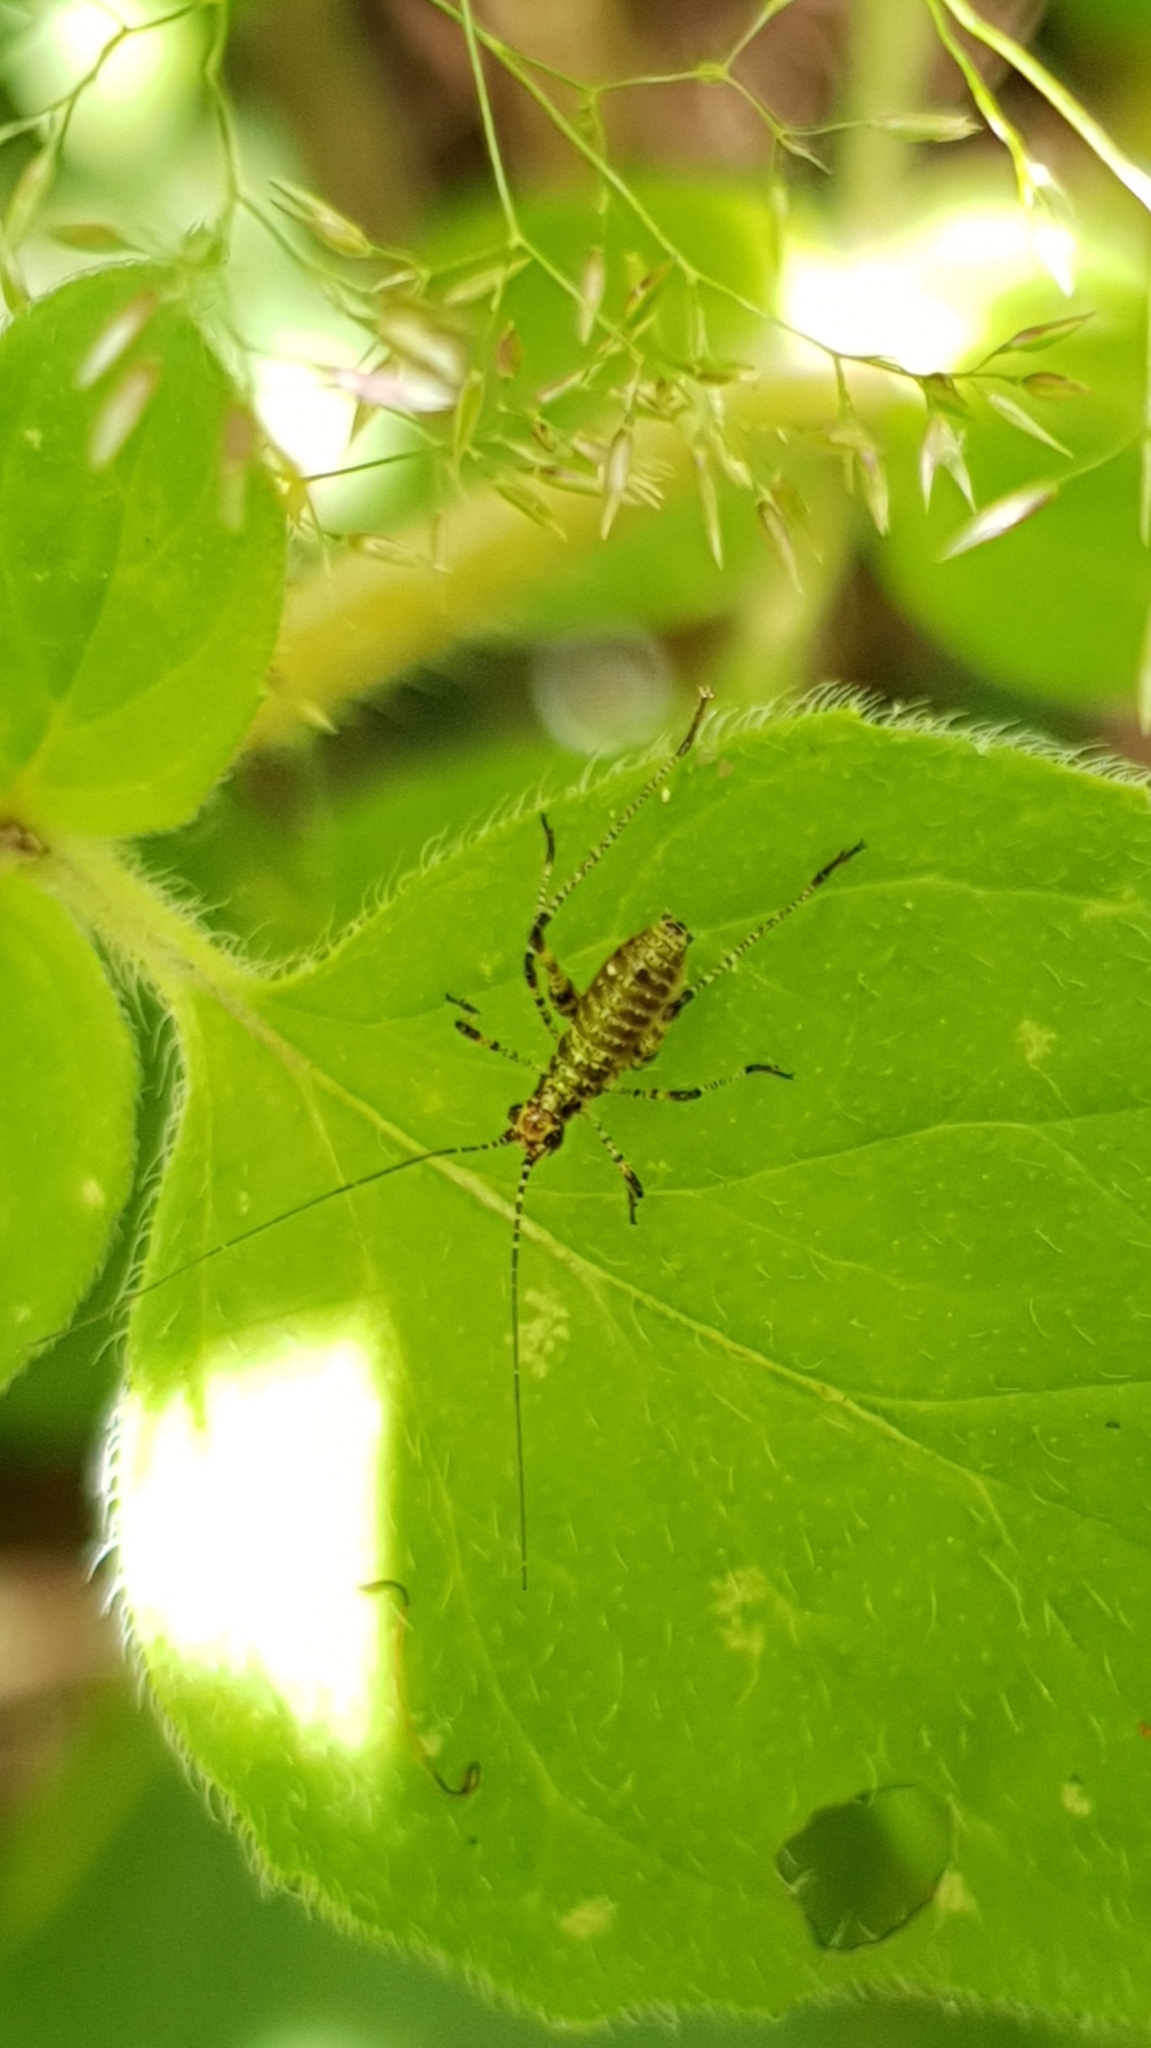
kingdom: Animalia
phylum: Arthropoda
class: Insecta
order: Orthoptera
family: Tettigoniidae
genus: Phaneroptera
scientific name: Phaneroptera nana
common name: Southern sickle bush-cricket
